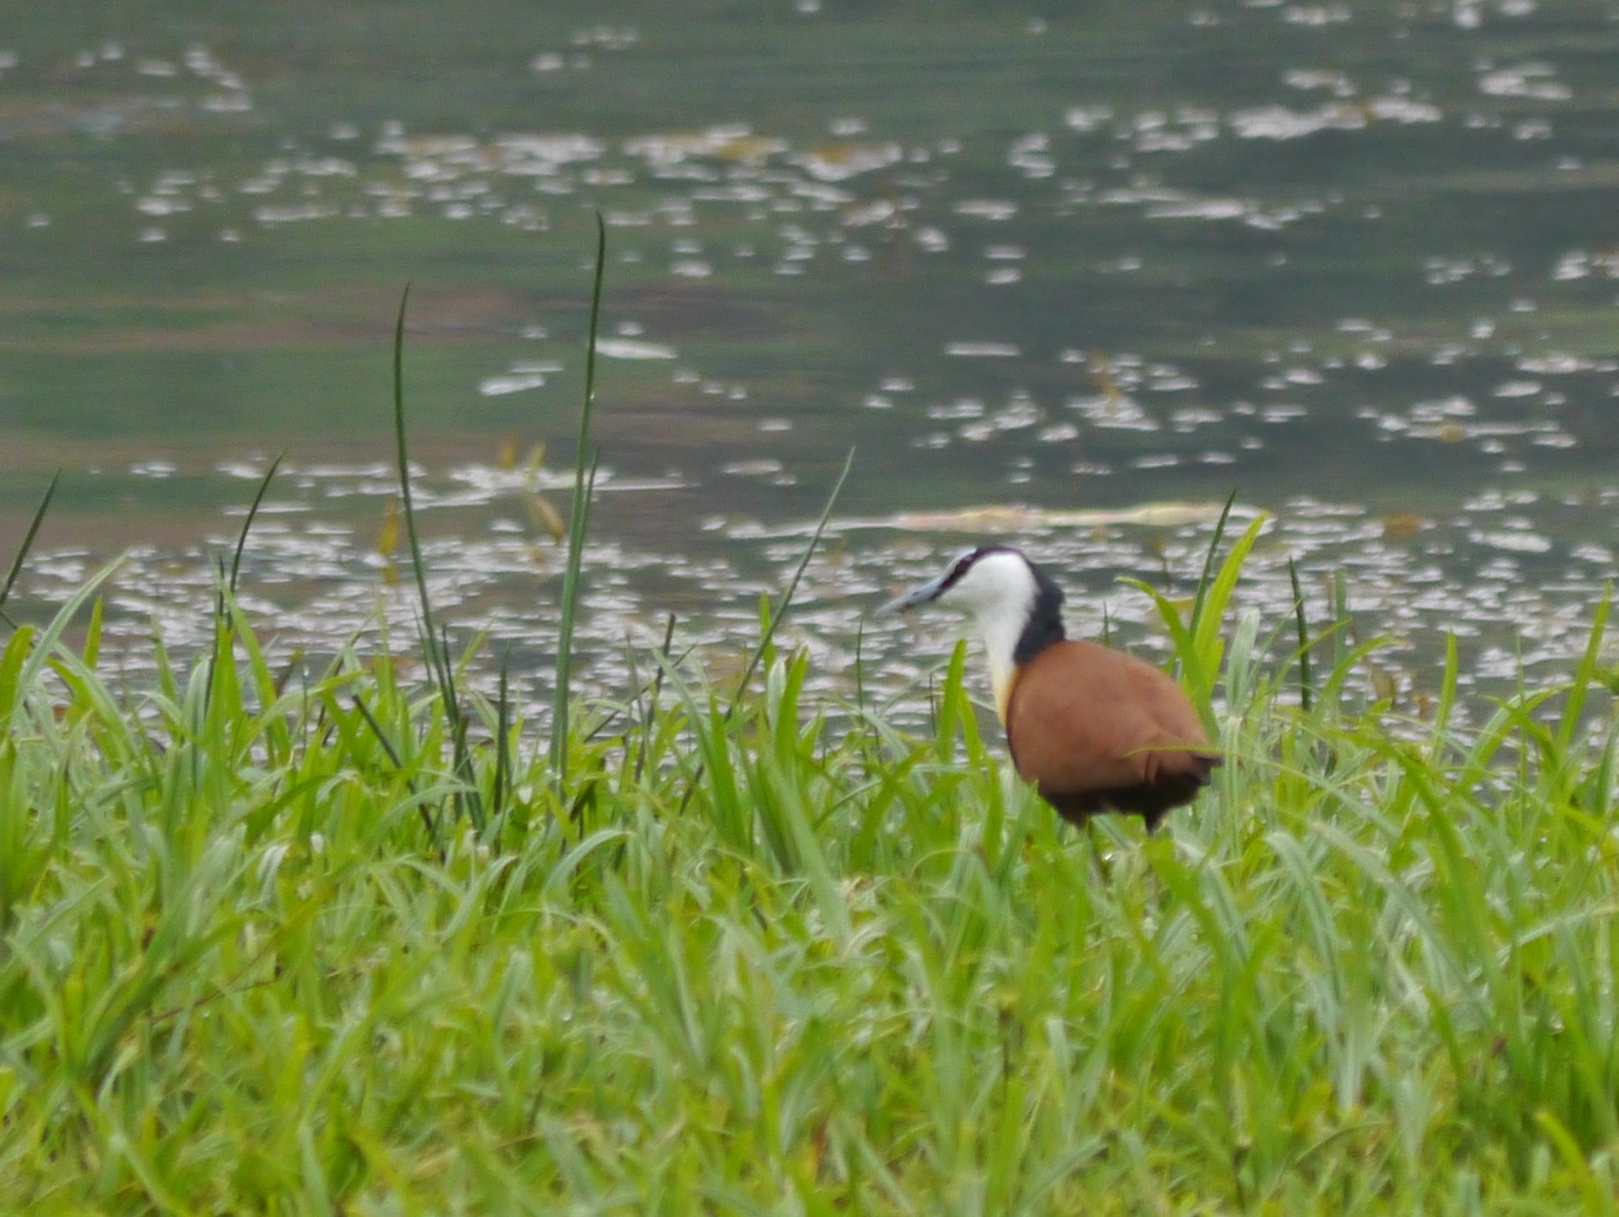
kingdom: Animalia
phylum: Chordata
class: Aves
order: Charadriiformes
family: Jacanidae
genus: Actophilornis
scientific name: Actophilornis africanus
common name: African jacana
